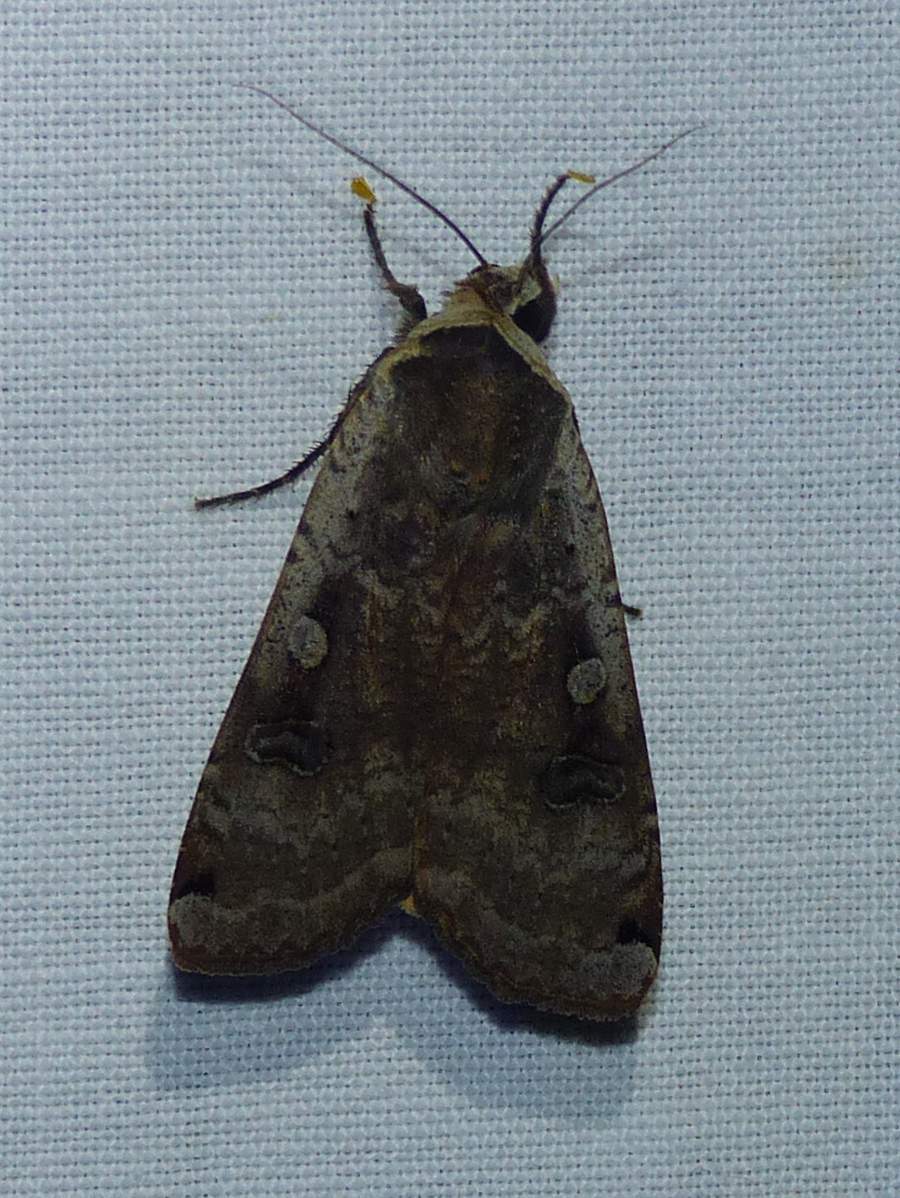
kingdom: Animalia
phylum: Arthropoda
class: Insecta
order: Lepidoptera
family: Noctuidae
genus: Noctua
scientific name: Noctua pronuba
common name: Large yellow underwing
